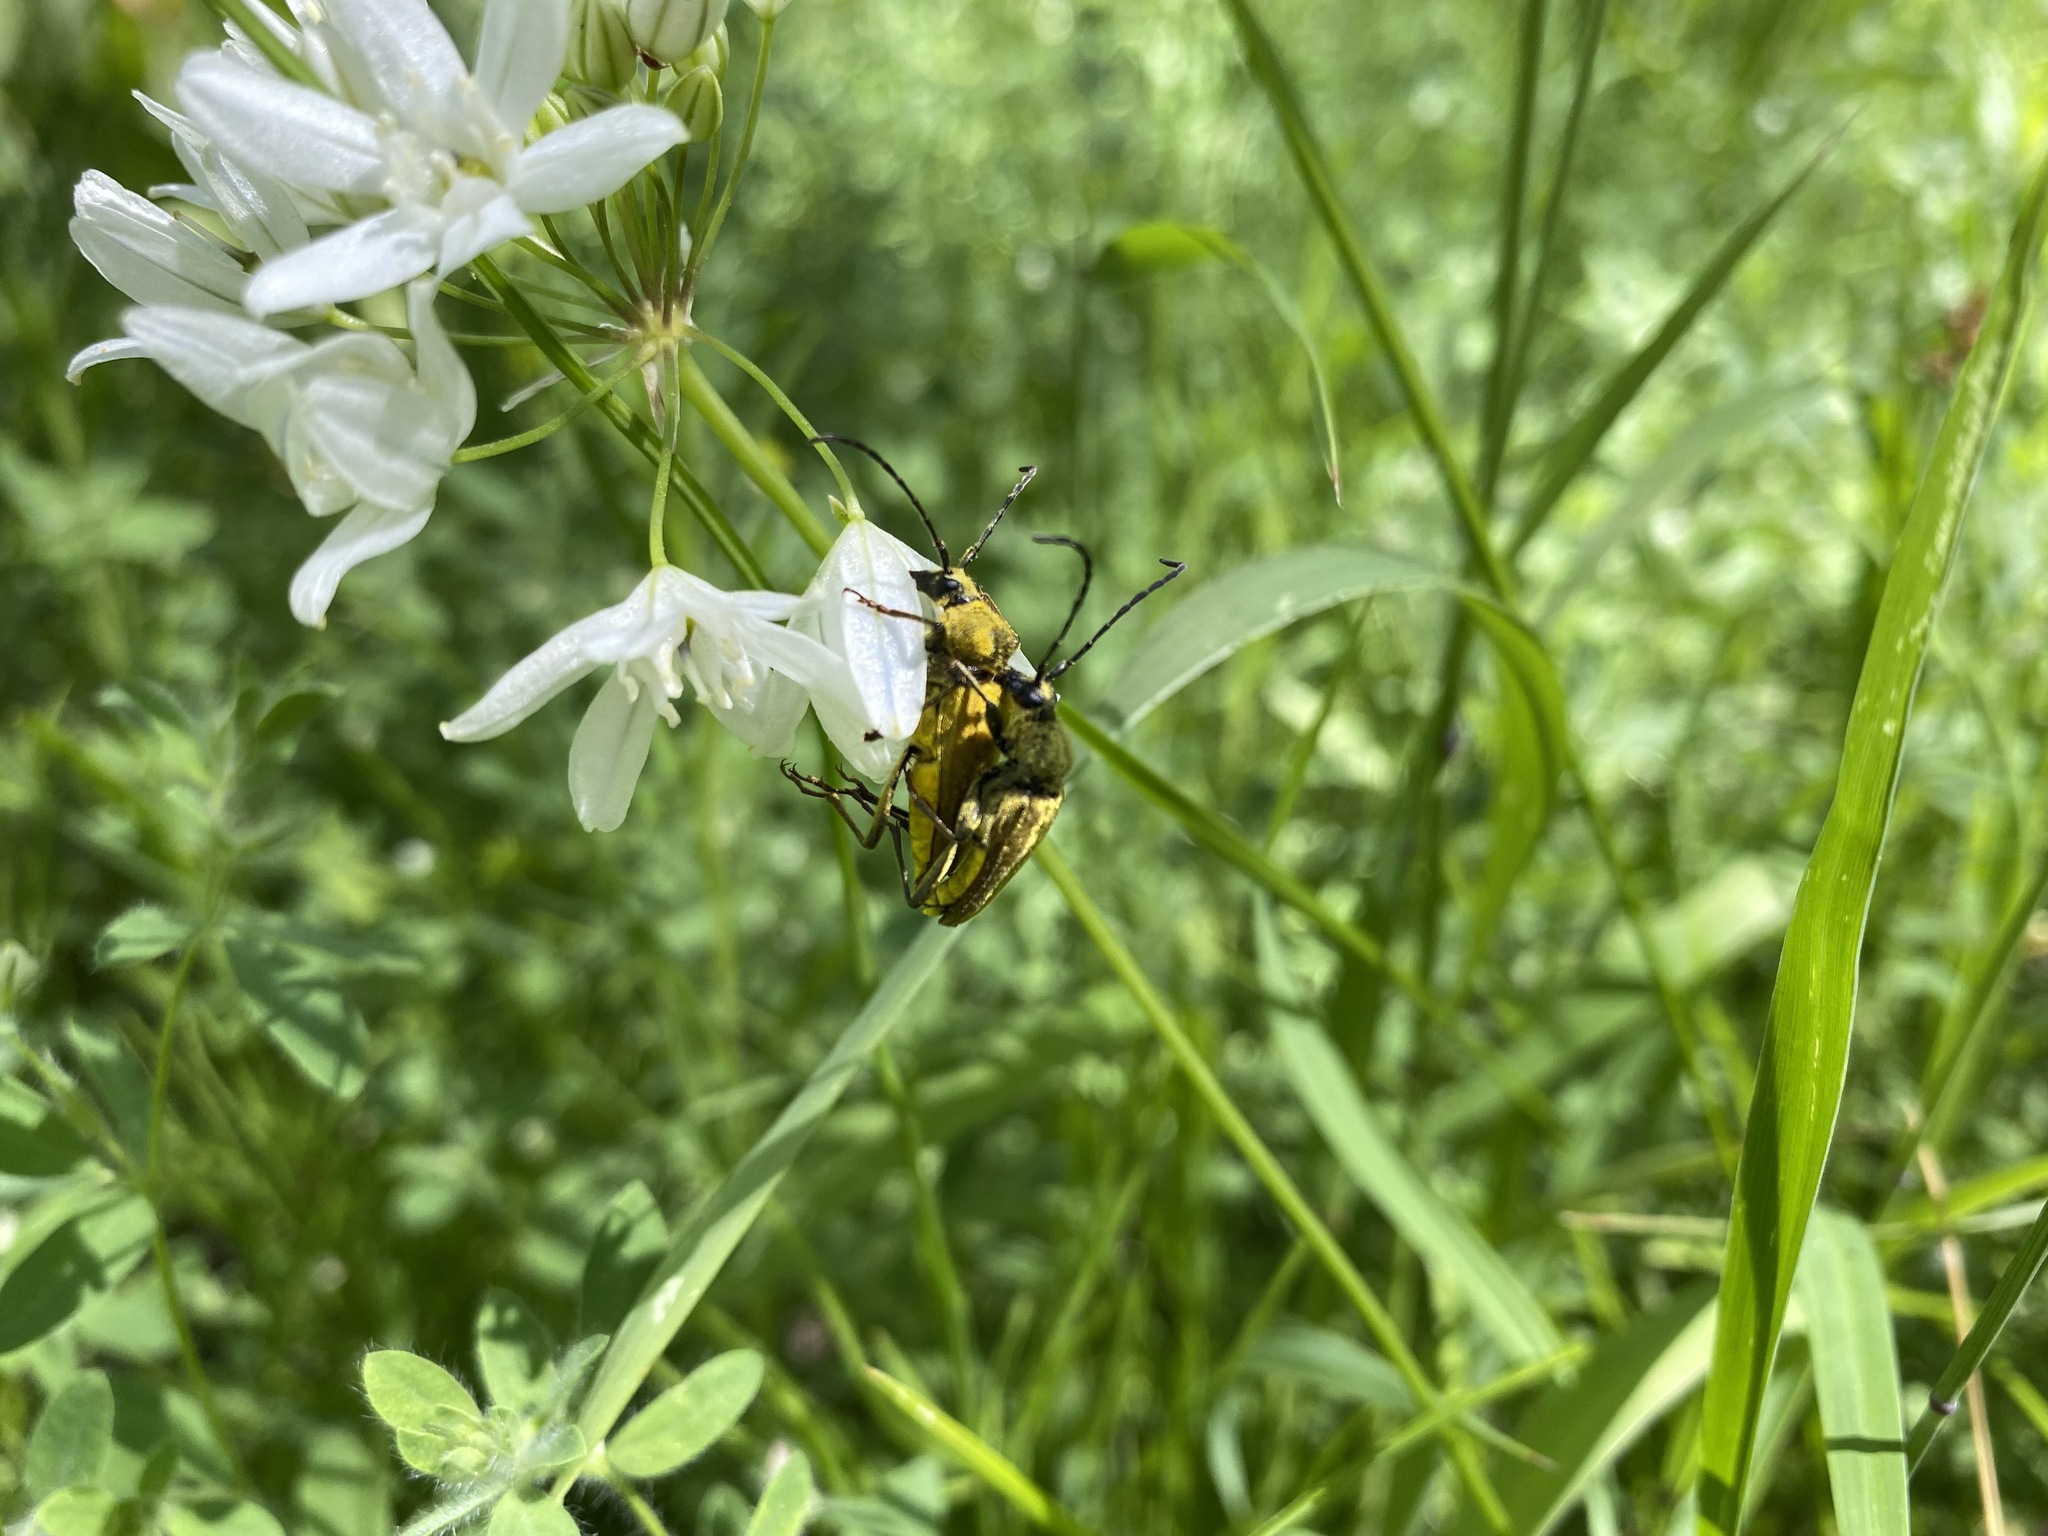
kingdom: Animalia
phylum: Arthropoda
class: Insecta
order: Coleoptera
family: Cerambycidae
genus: Cosmosalia
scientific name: Cosmosalia chrysocoma
